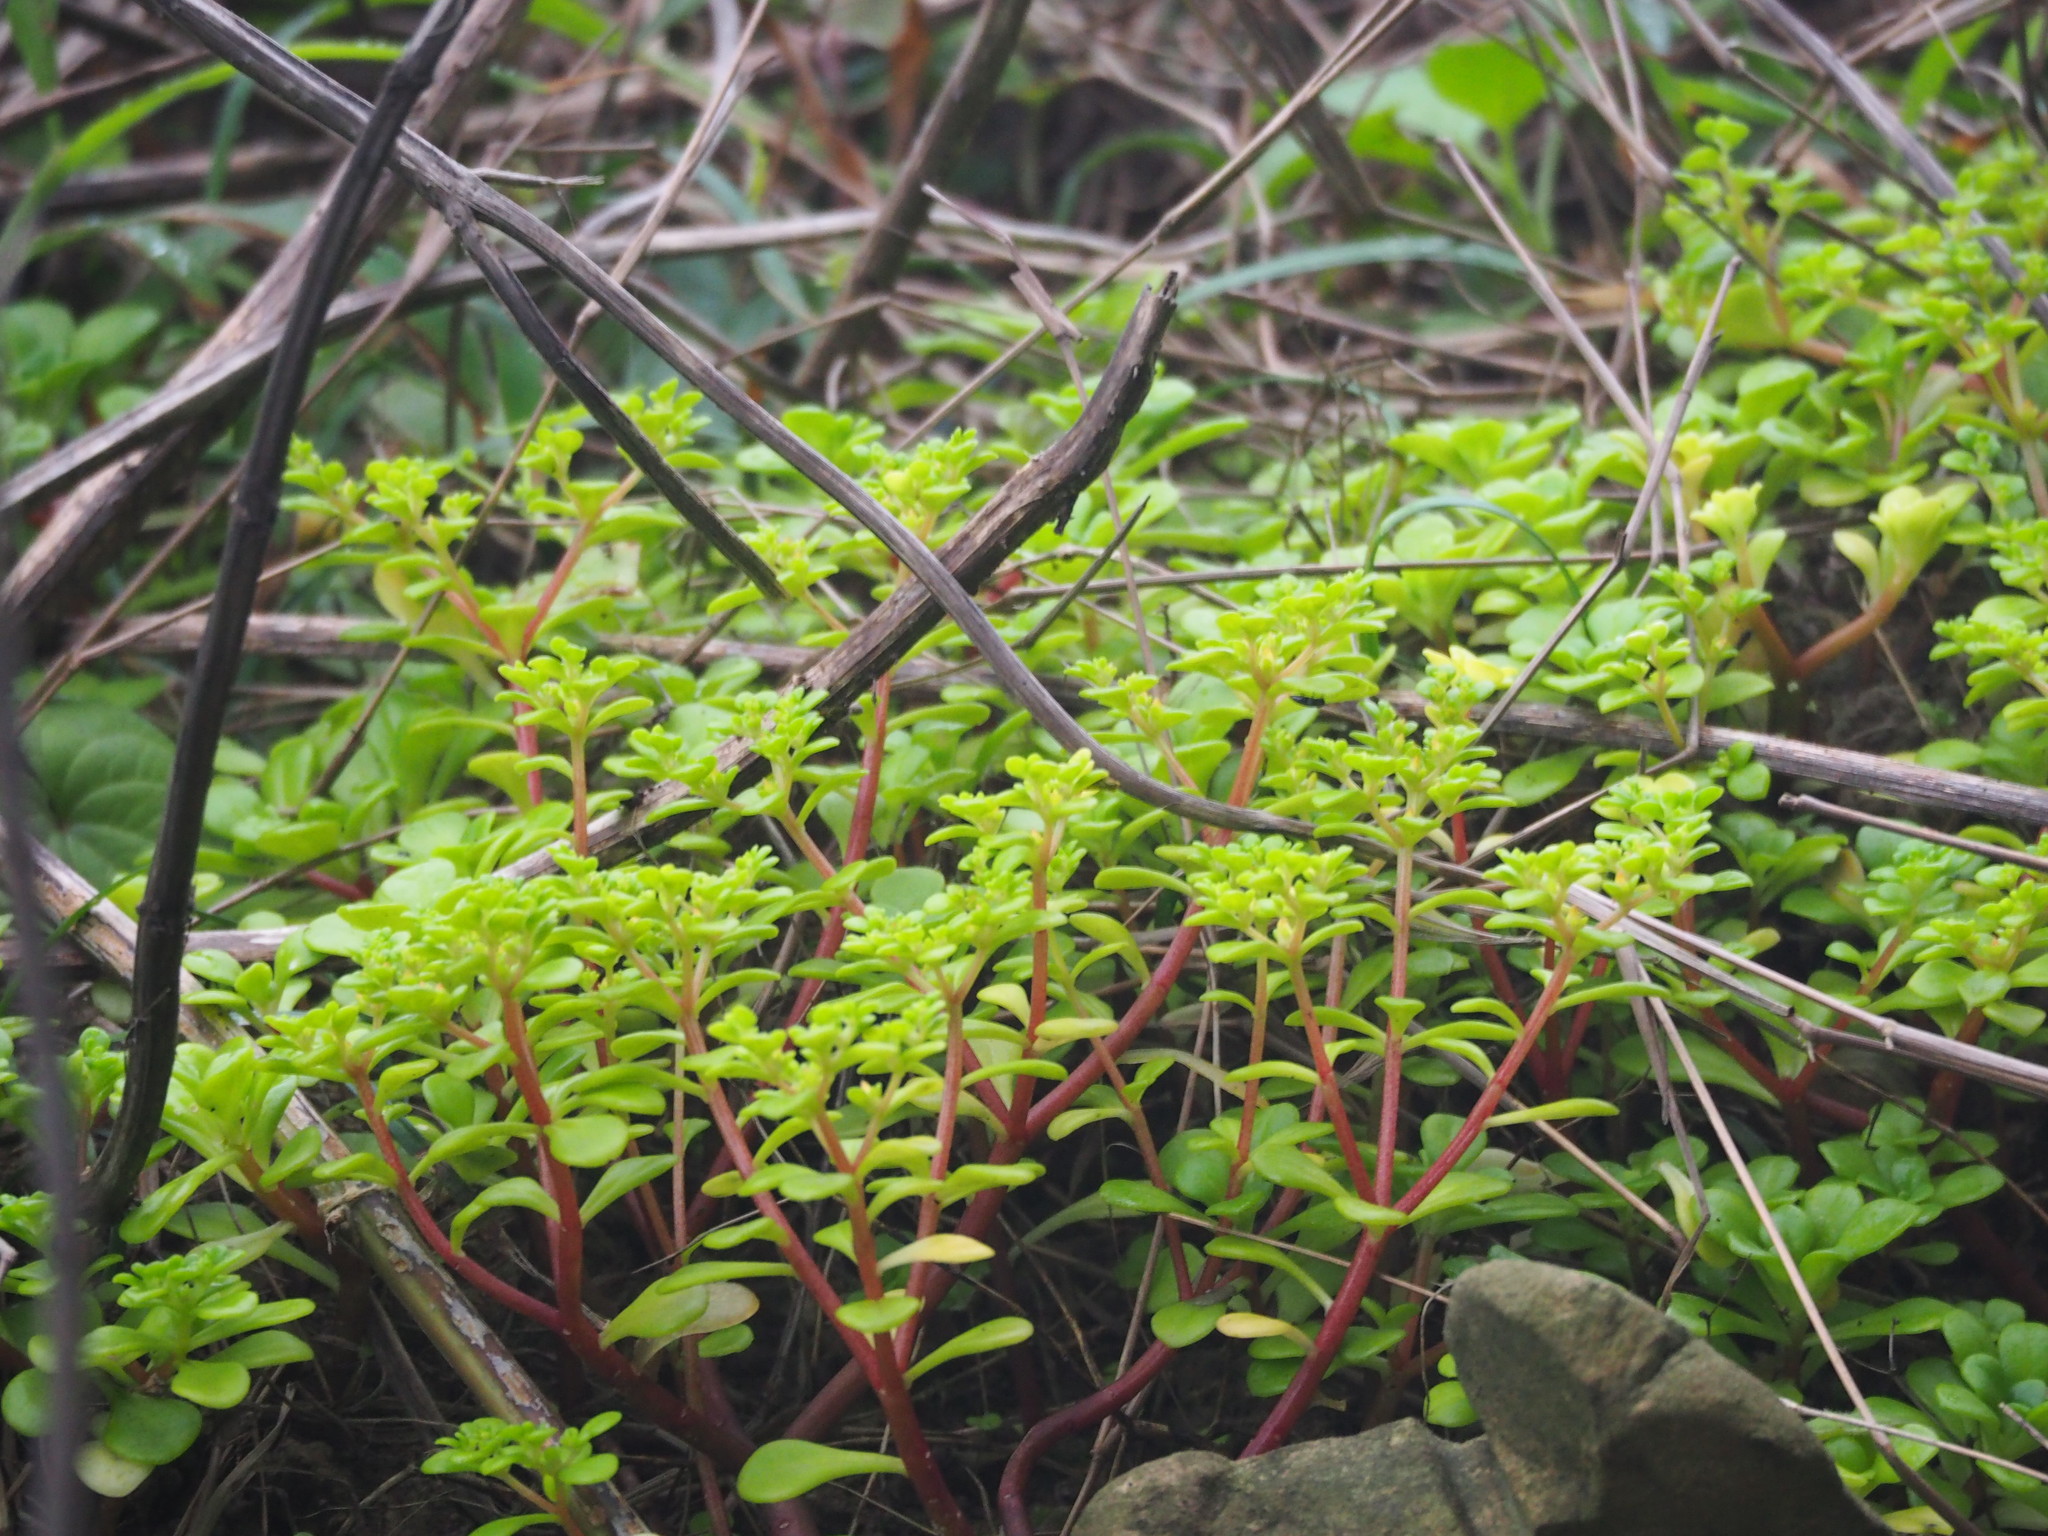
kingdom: Plantae
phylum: Tracheophyta
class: Magnoliopsida
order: Saxifragales
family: Crassulaceae
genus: Sedum
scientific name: Sedum formosanum
